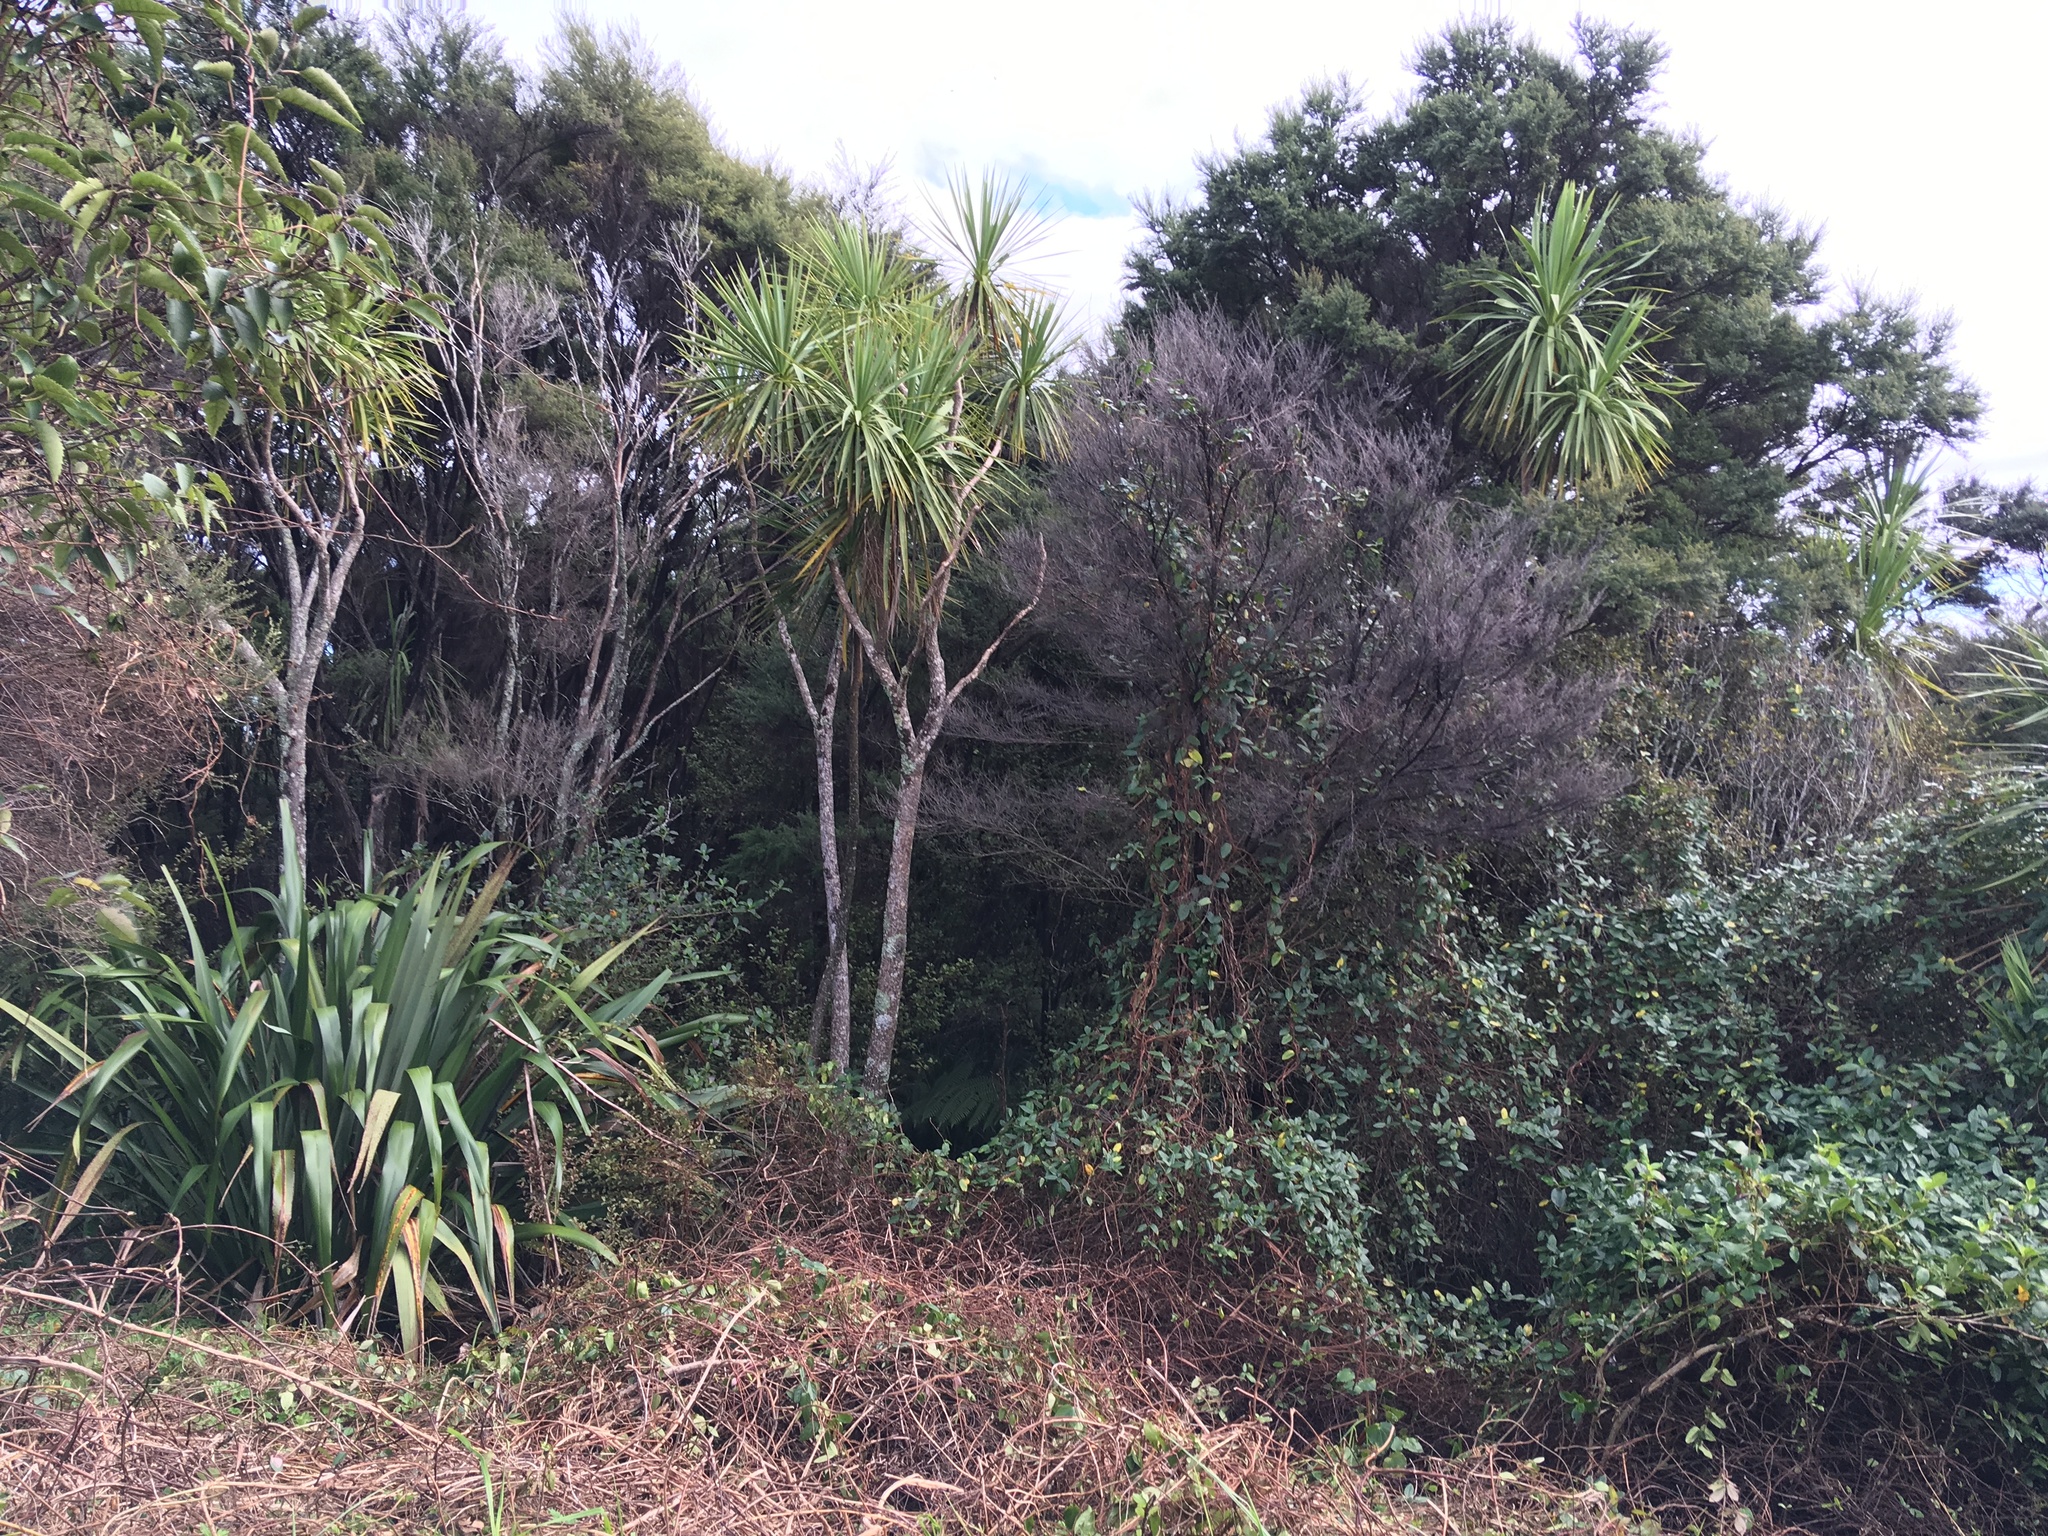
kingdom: Plantae
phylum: Tracheophyta
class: Liliopsida
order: Asparagales
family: Asparagaceae
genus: Cordyline
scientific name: Cordyline australis
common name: Cabbage-palm
